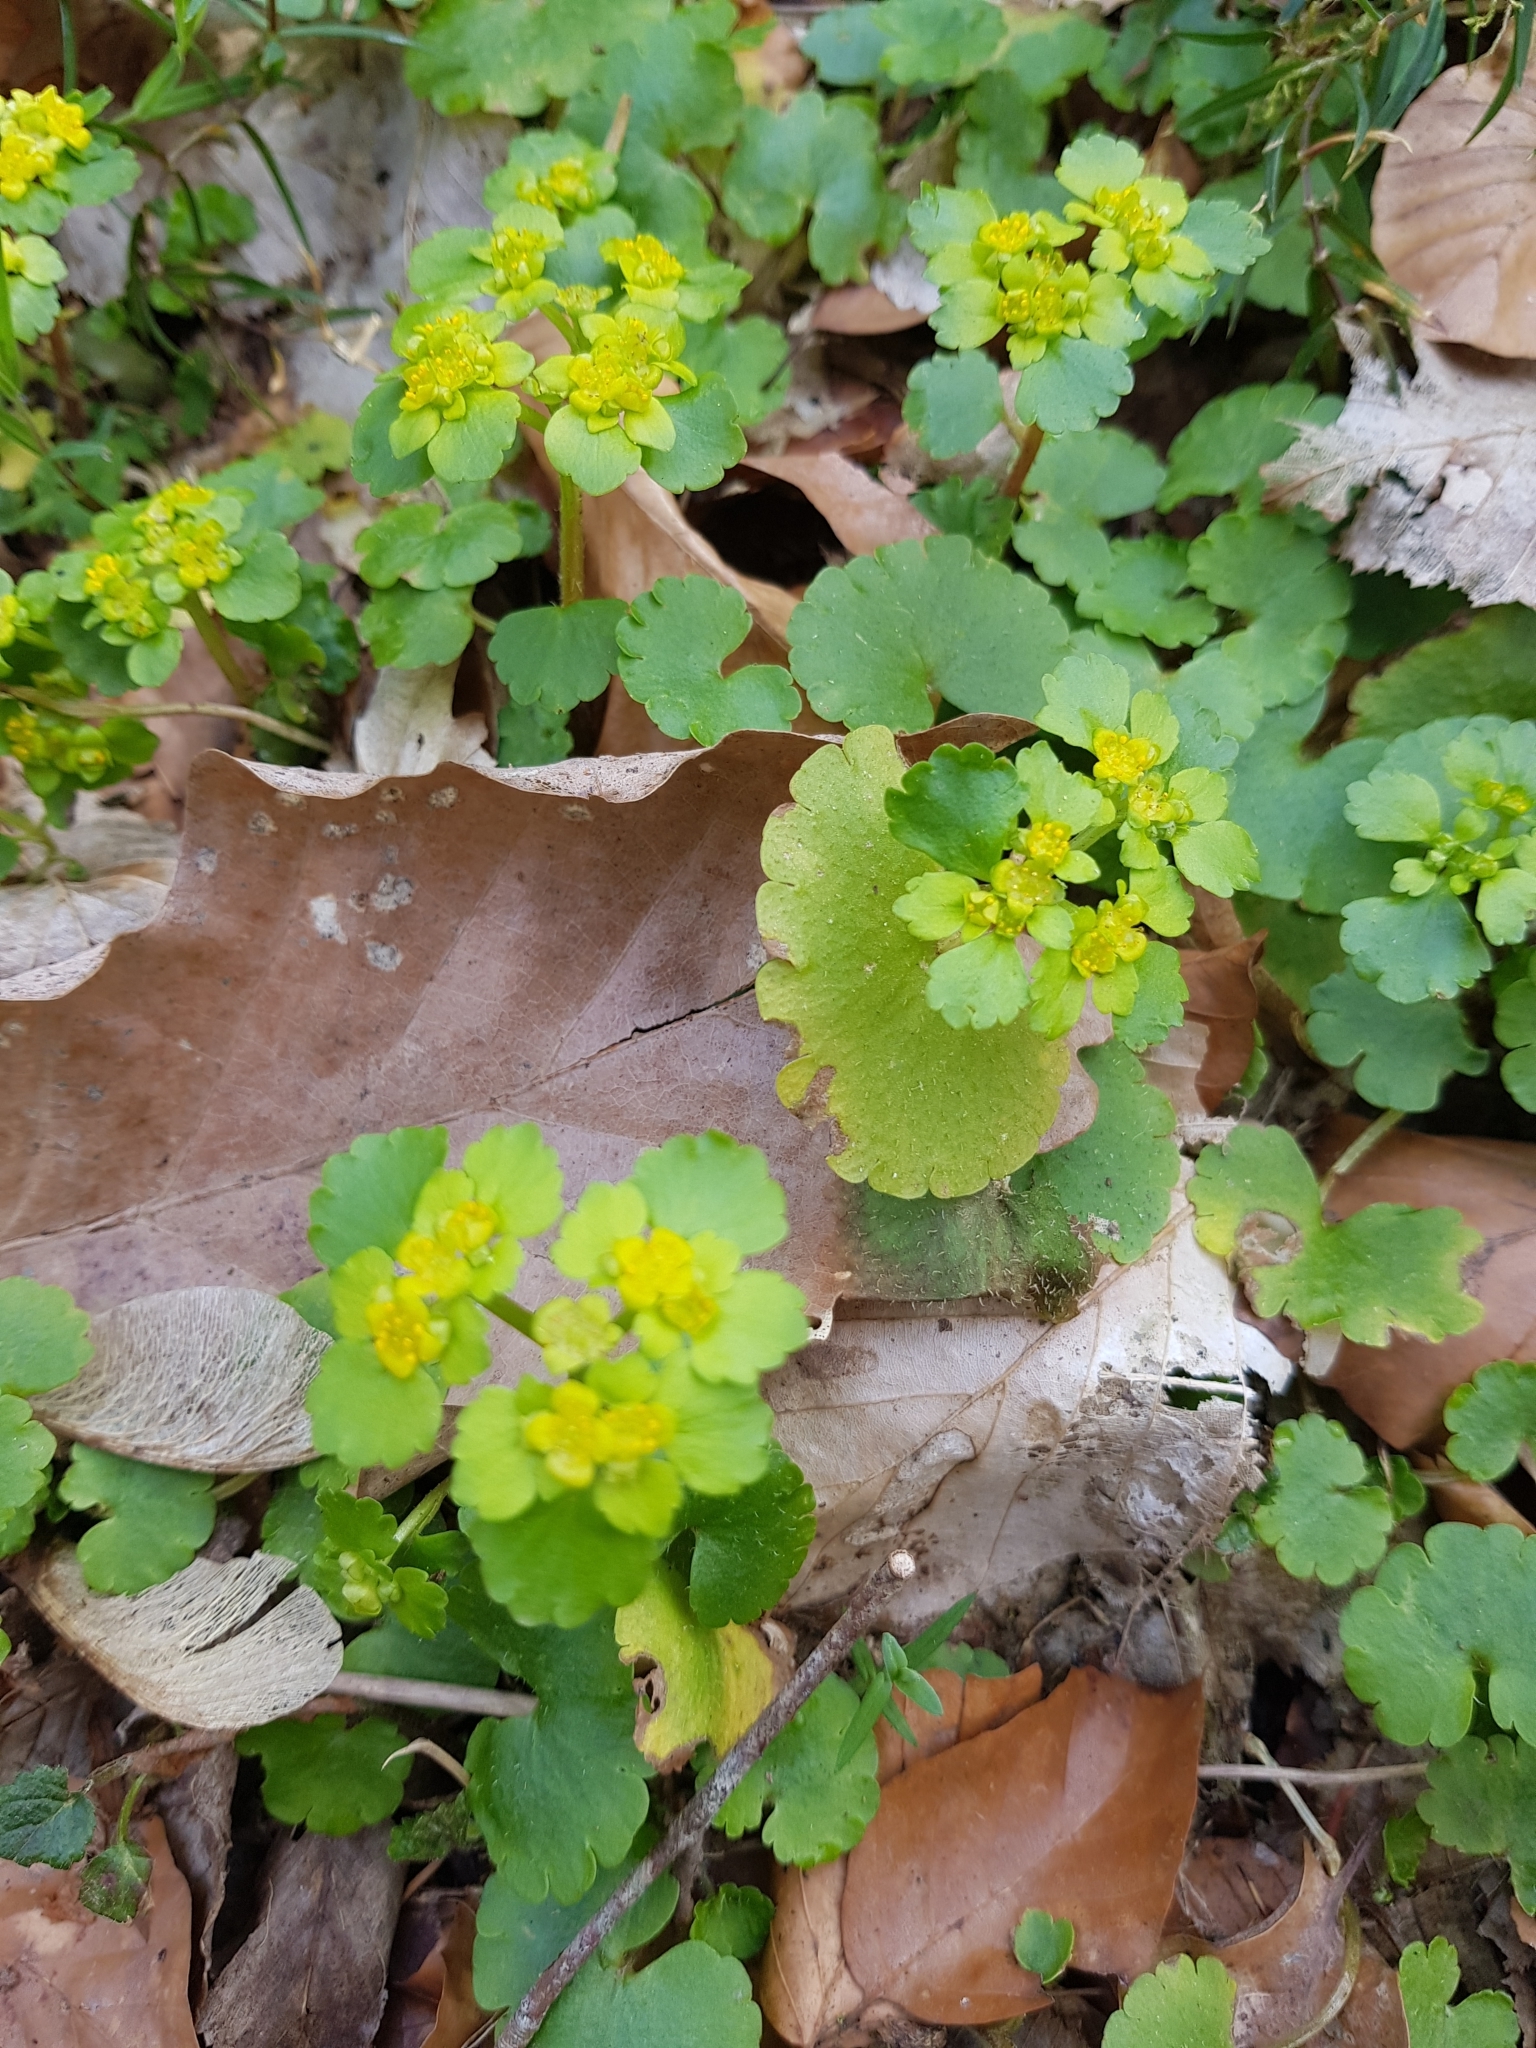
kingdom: Plantae
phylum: Tracheophyta
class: Magnoliopsida
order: Saxifragales
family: Saxifragaceae
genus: Chrysosplenium
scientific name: Chrysosplenium alternifolium
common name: Alternate-leaved golden-saxifrage
